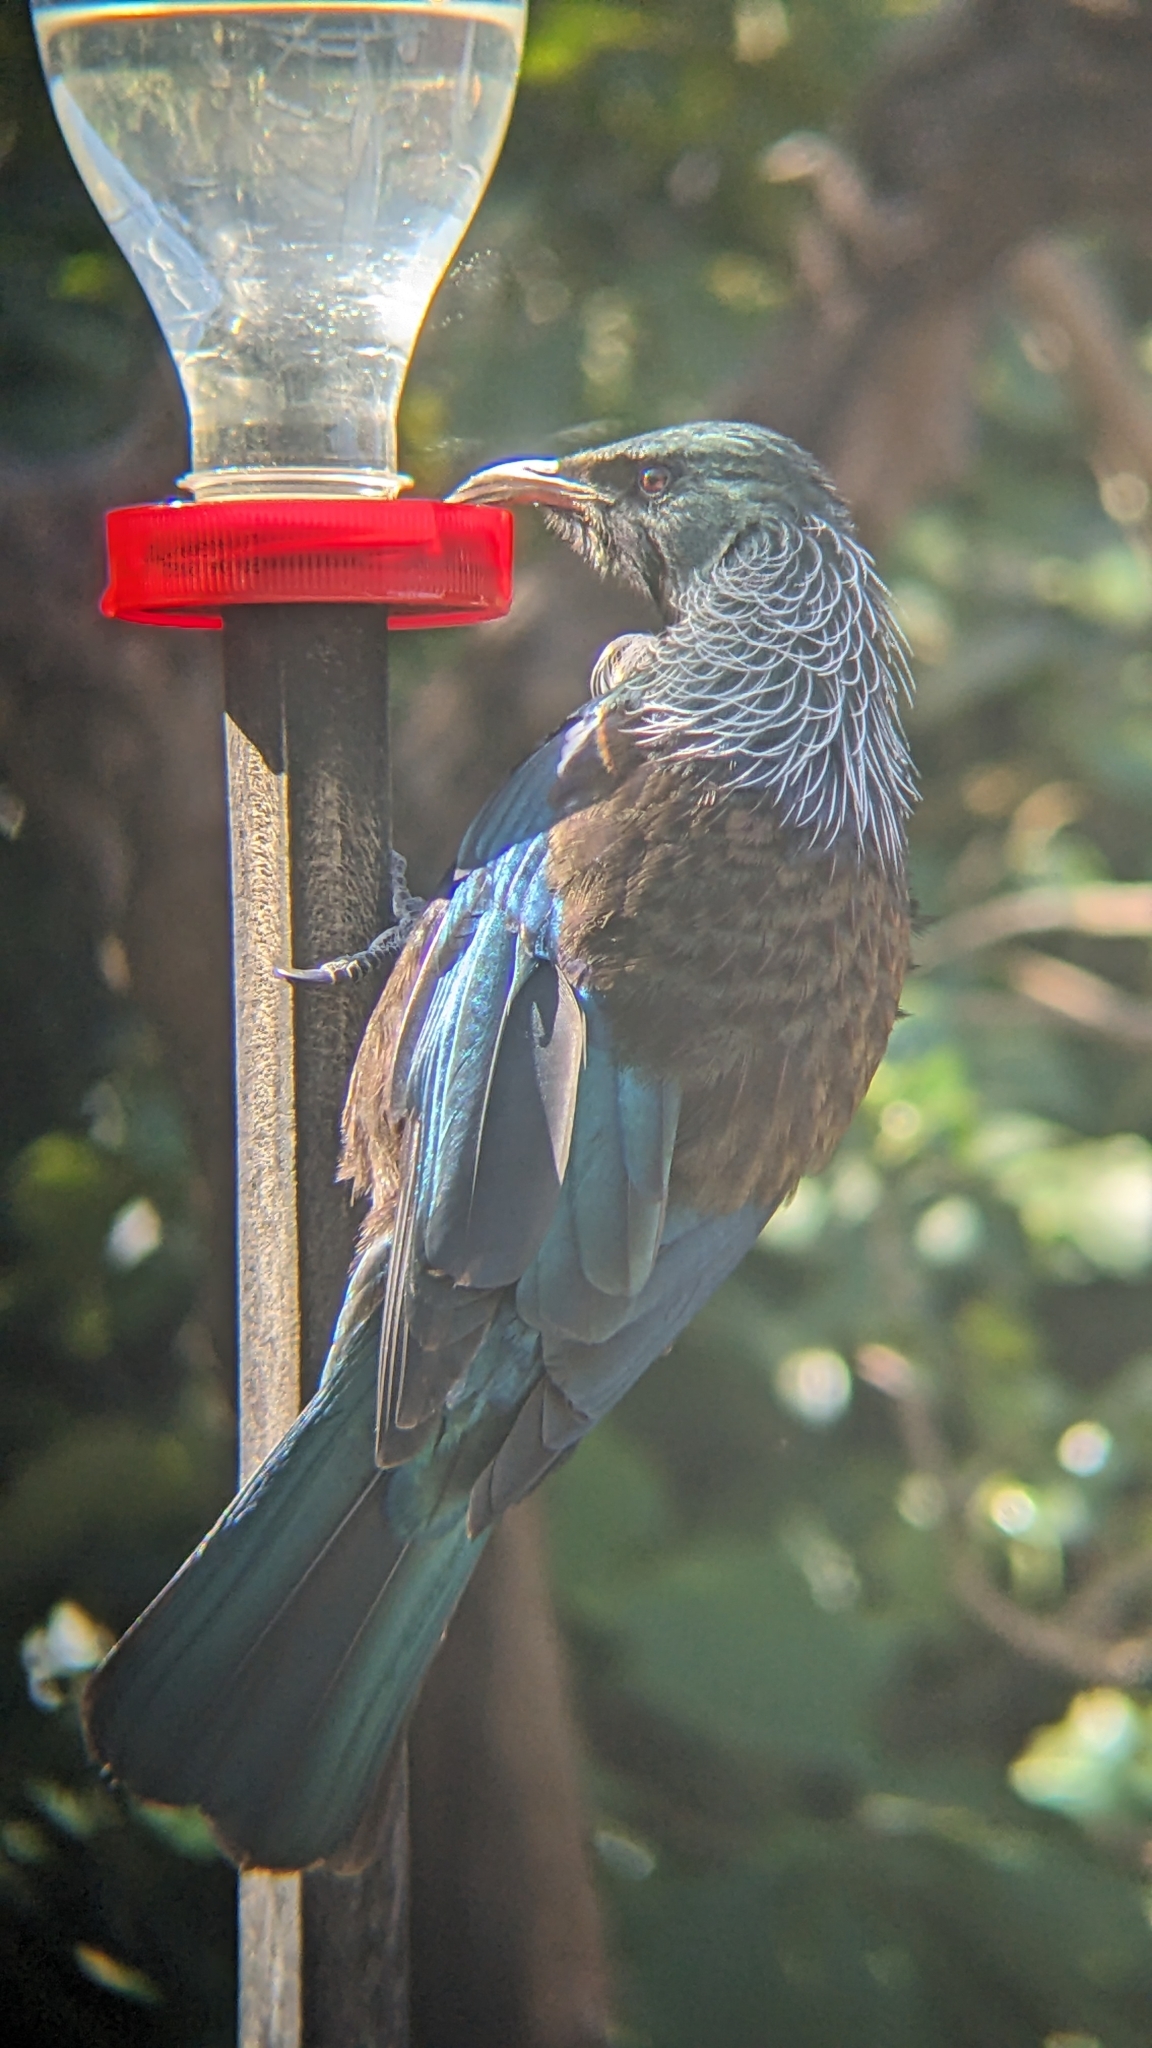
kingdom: Animalia
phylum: Chordata
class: Aves
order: Passeriformes
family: Meliphagidae
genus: Prosthemadera
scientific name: Prosthemadera novaeseelandiae
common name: Tui
